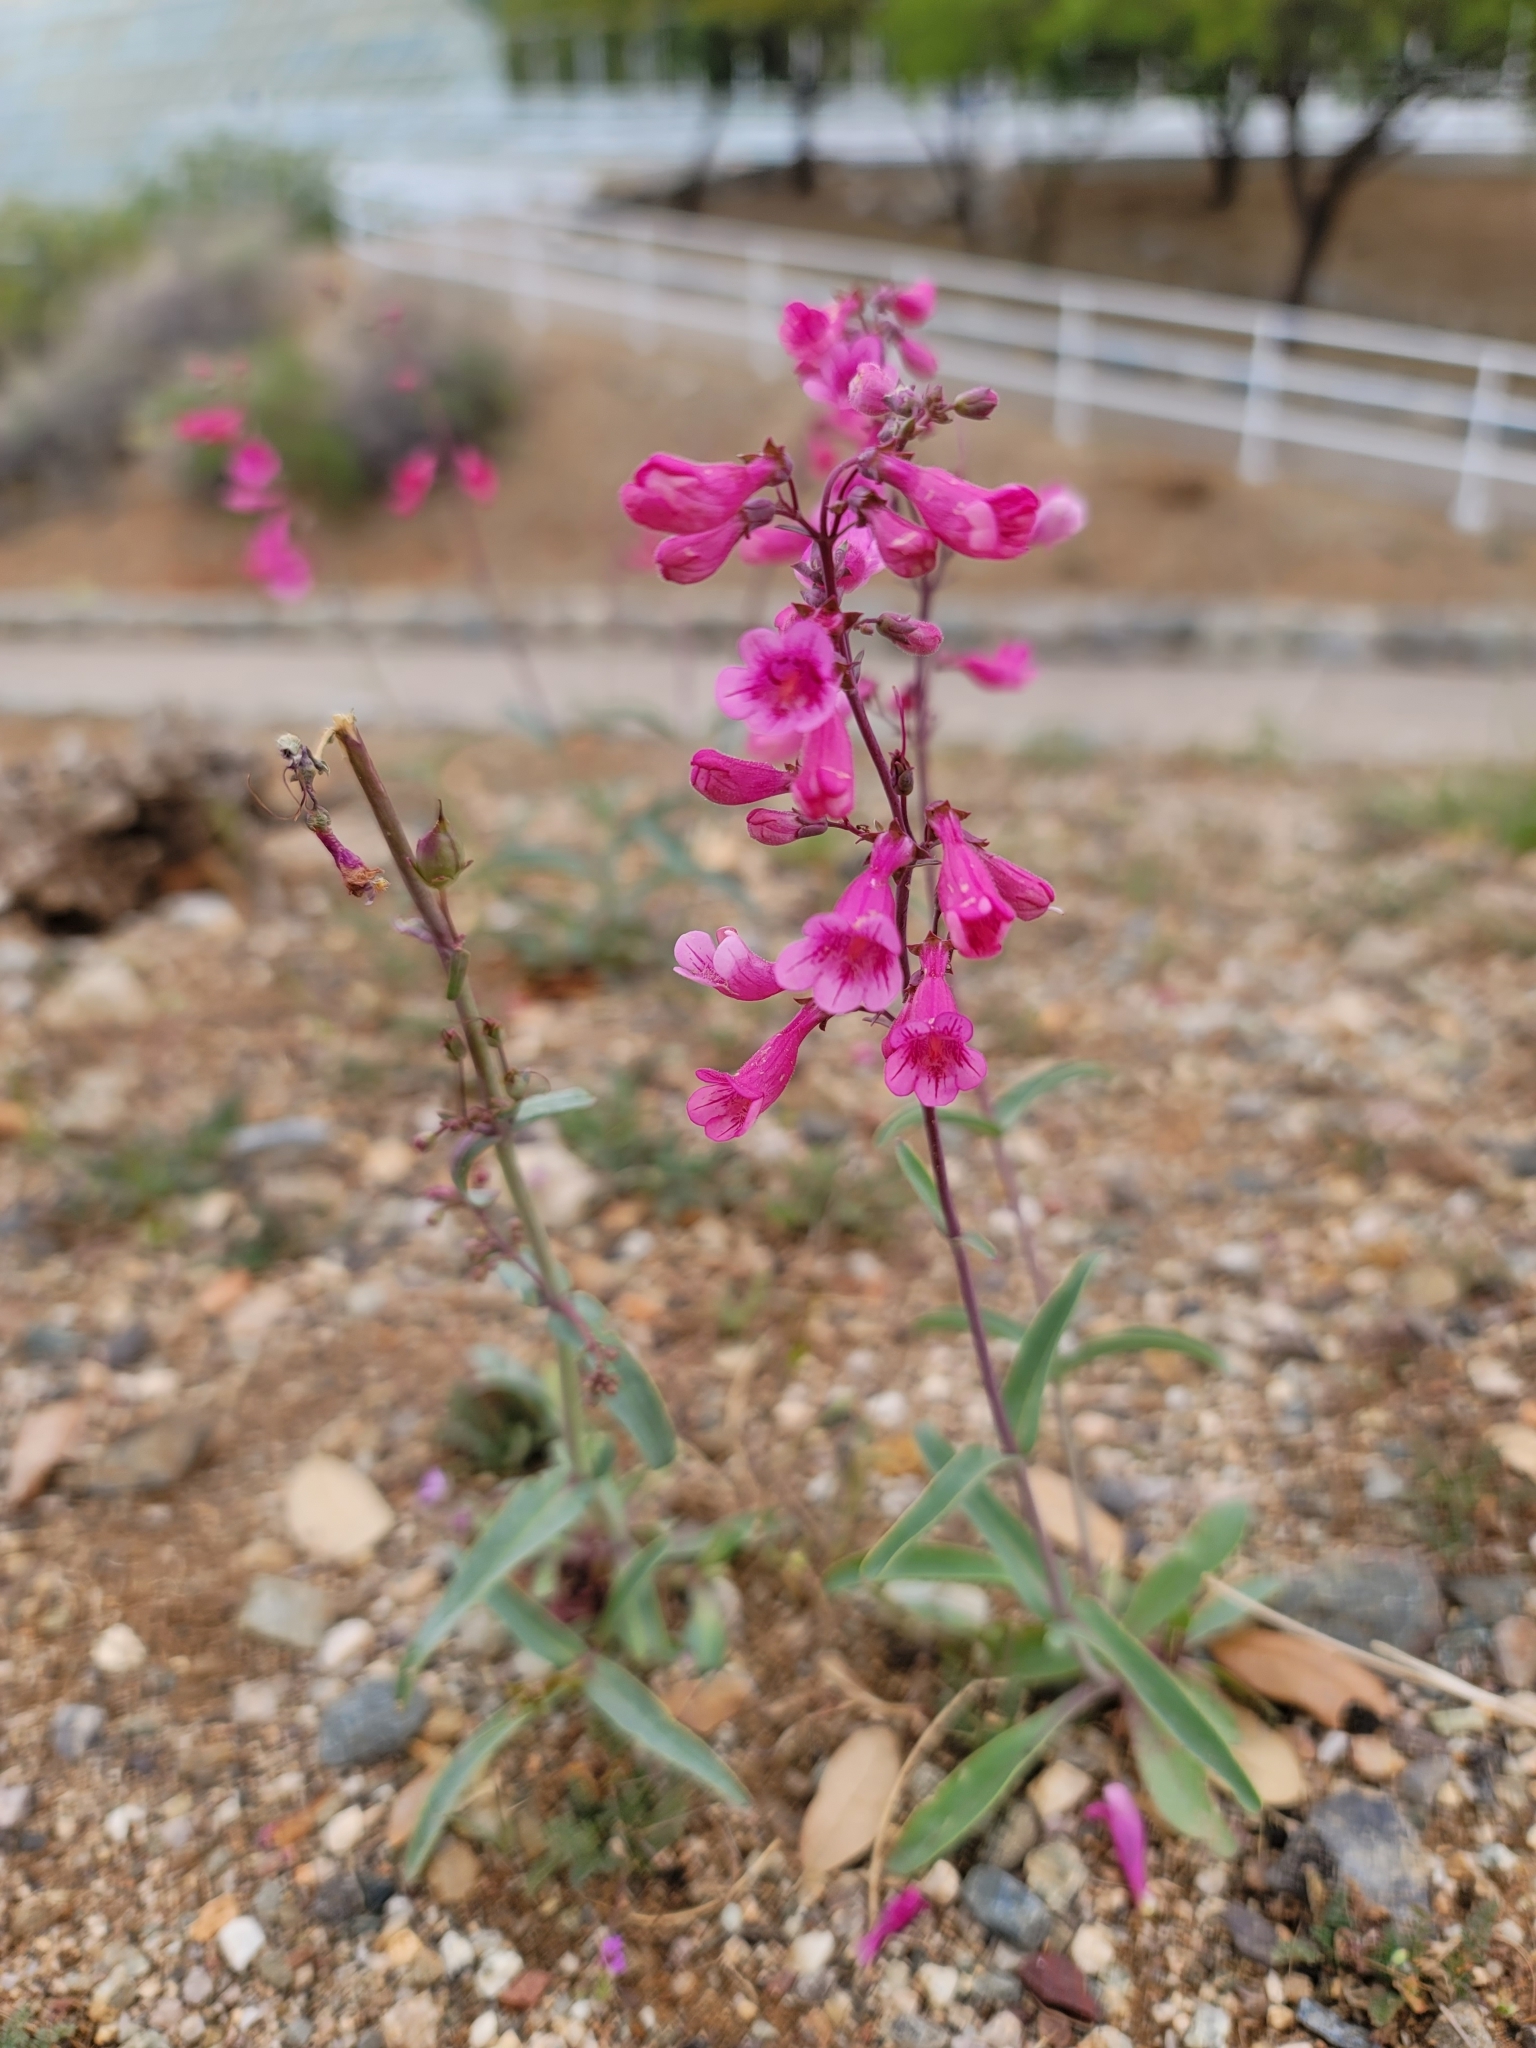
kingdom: Plantae
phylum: Tracheophyta
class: Magnoliopsida
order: Lamiales
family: Plantaginaceae
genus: Penstemon
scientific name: Penstemon parryi
